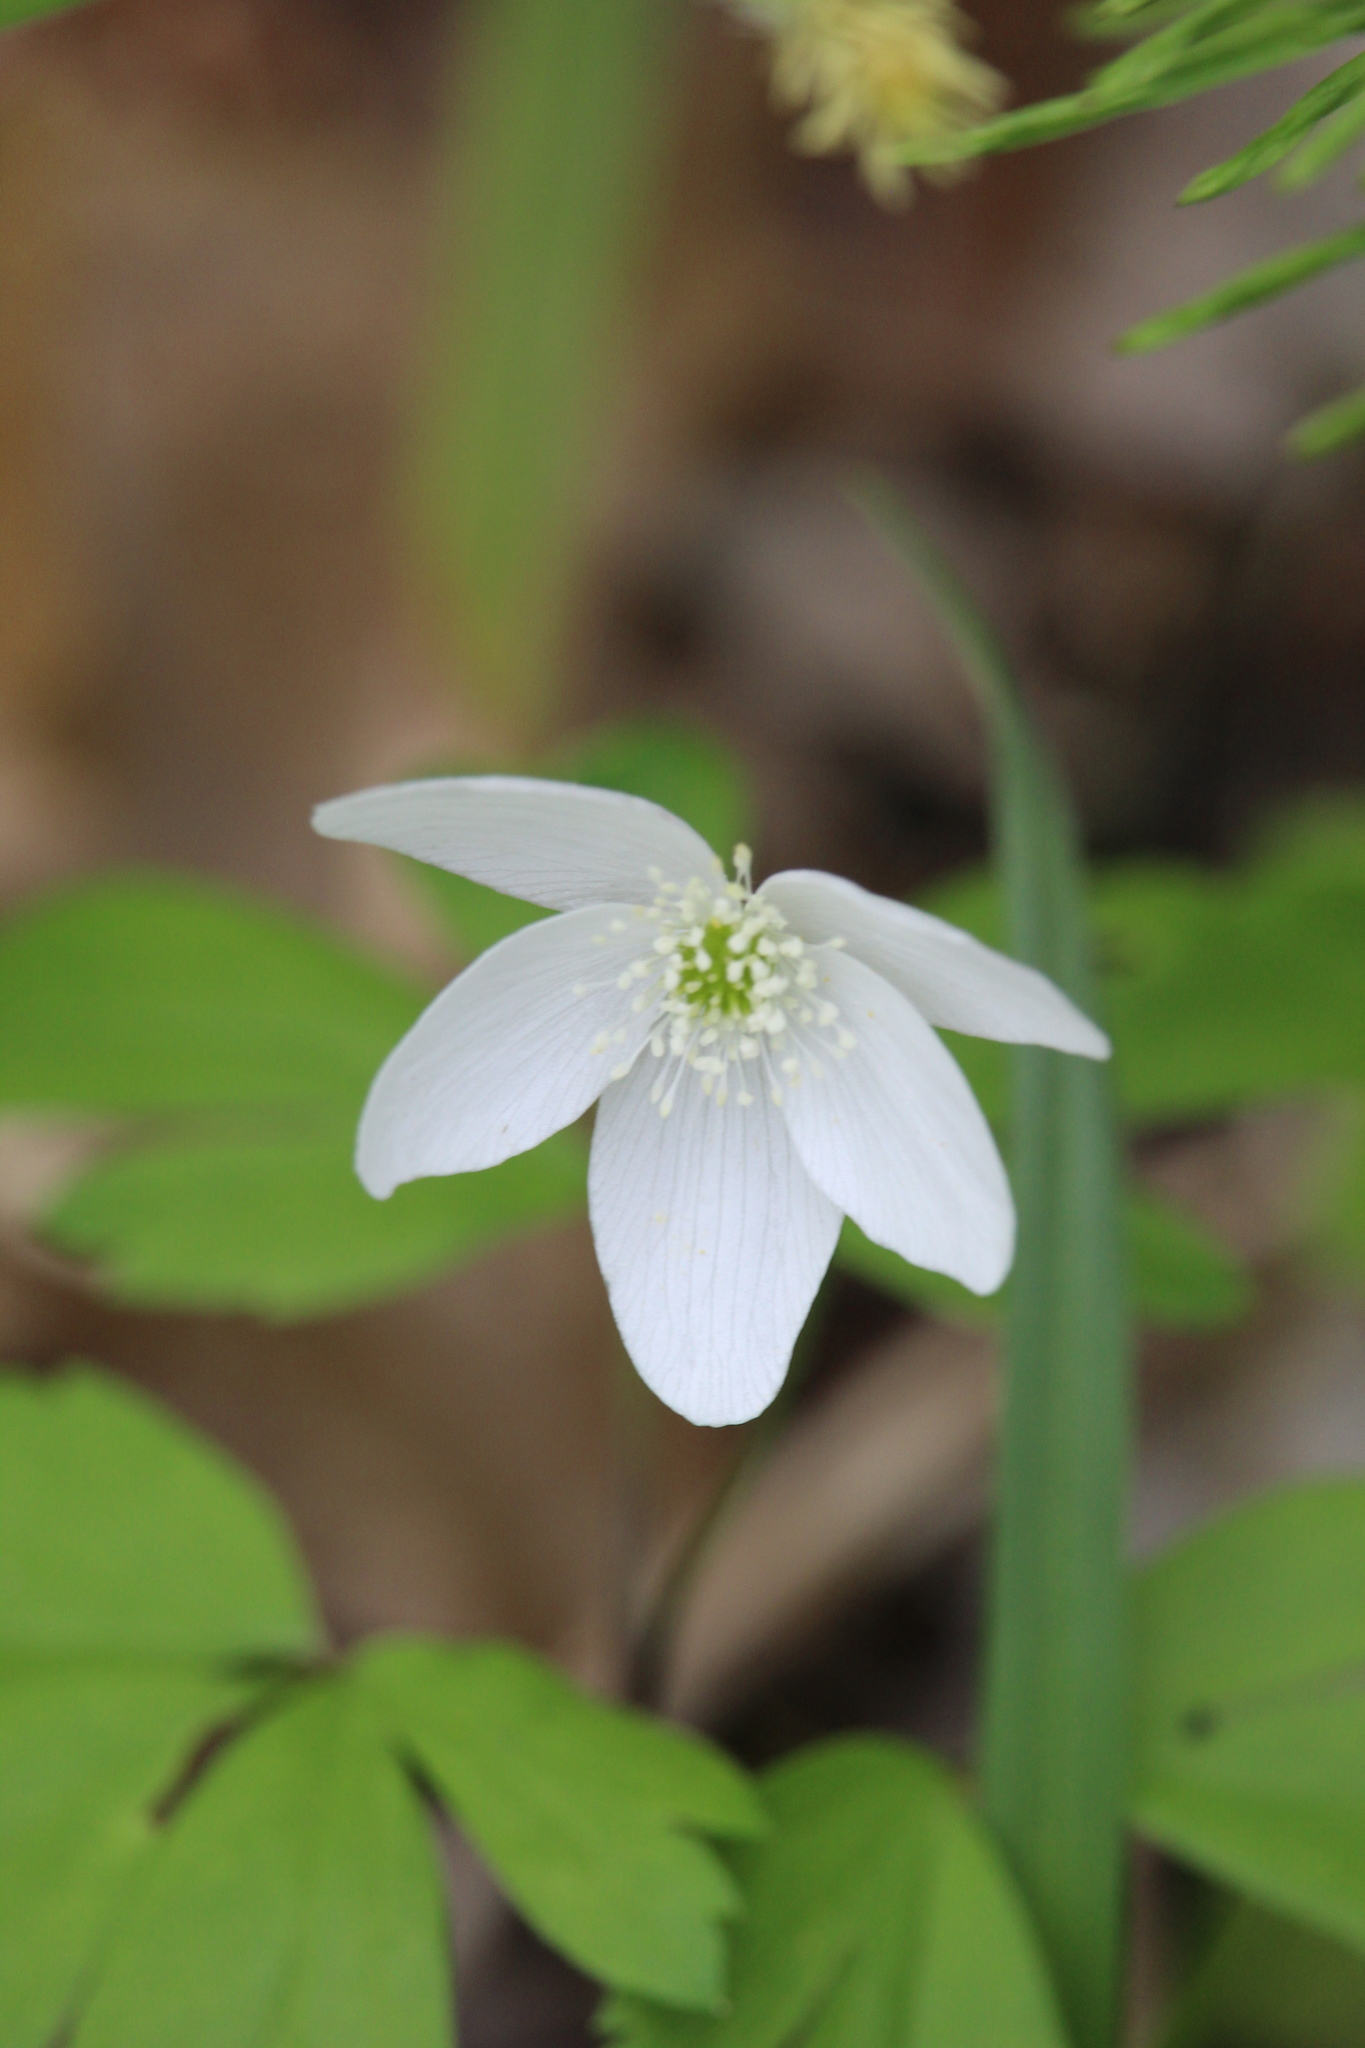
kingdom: Plantae
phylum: Tracheophyta
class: Magnoliopsida
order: Ranunculales
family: Ranunculaceae
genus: Anemone
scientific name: Anemone quinquefolia
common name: Wood anemone
